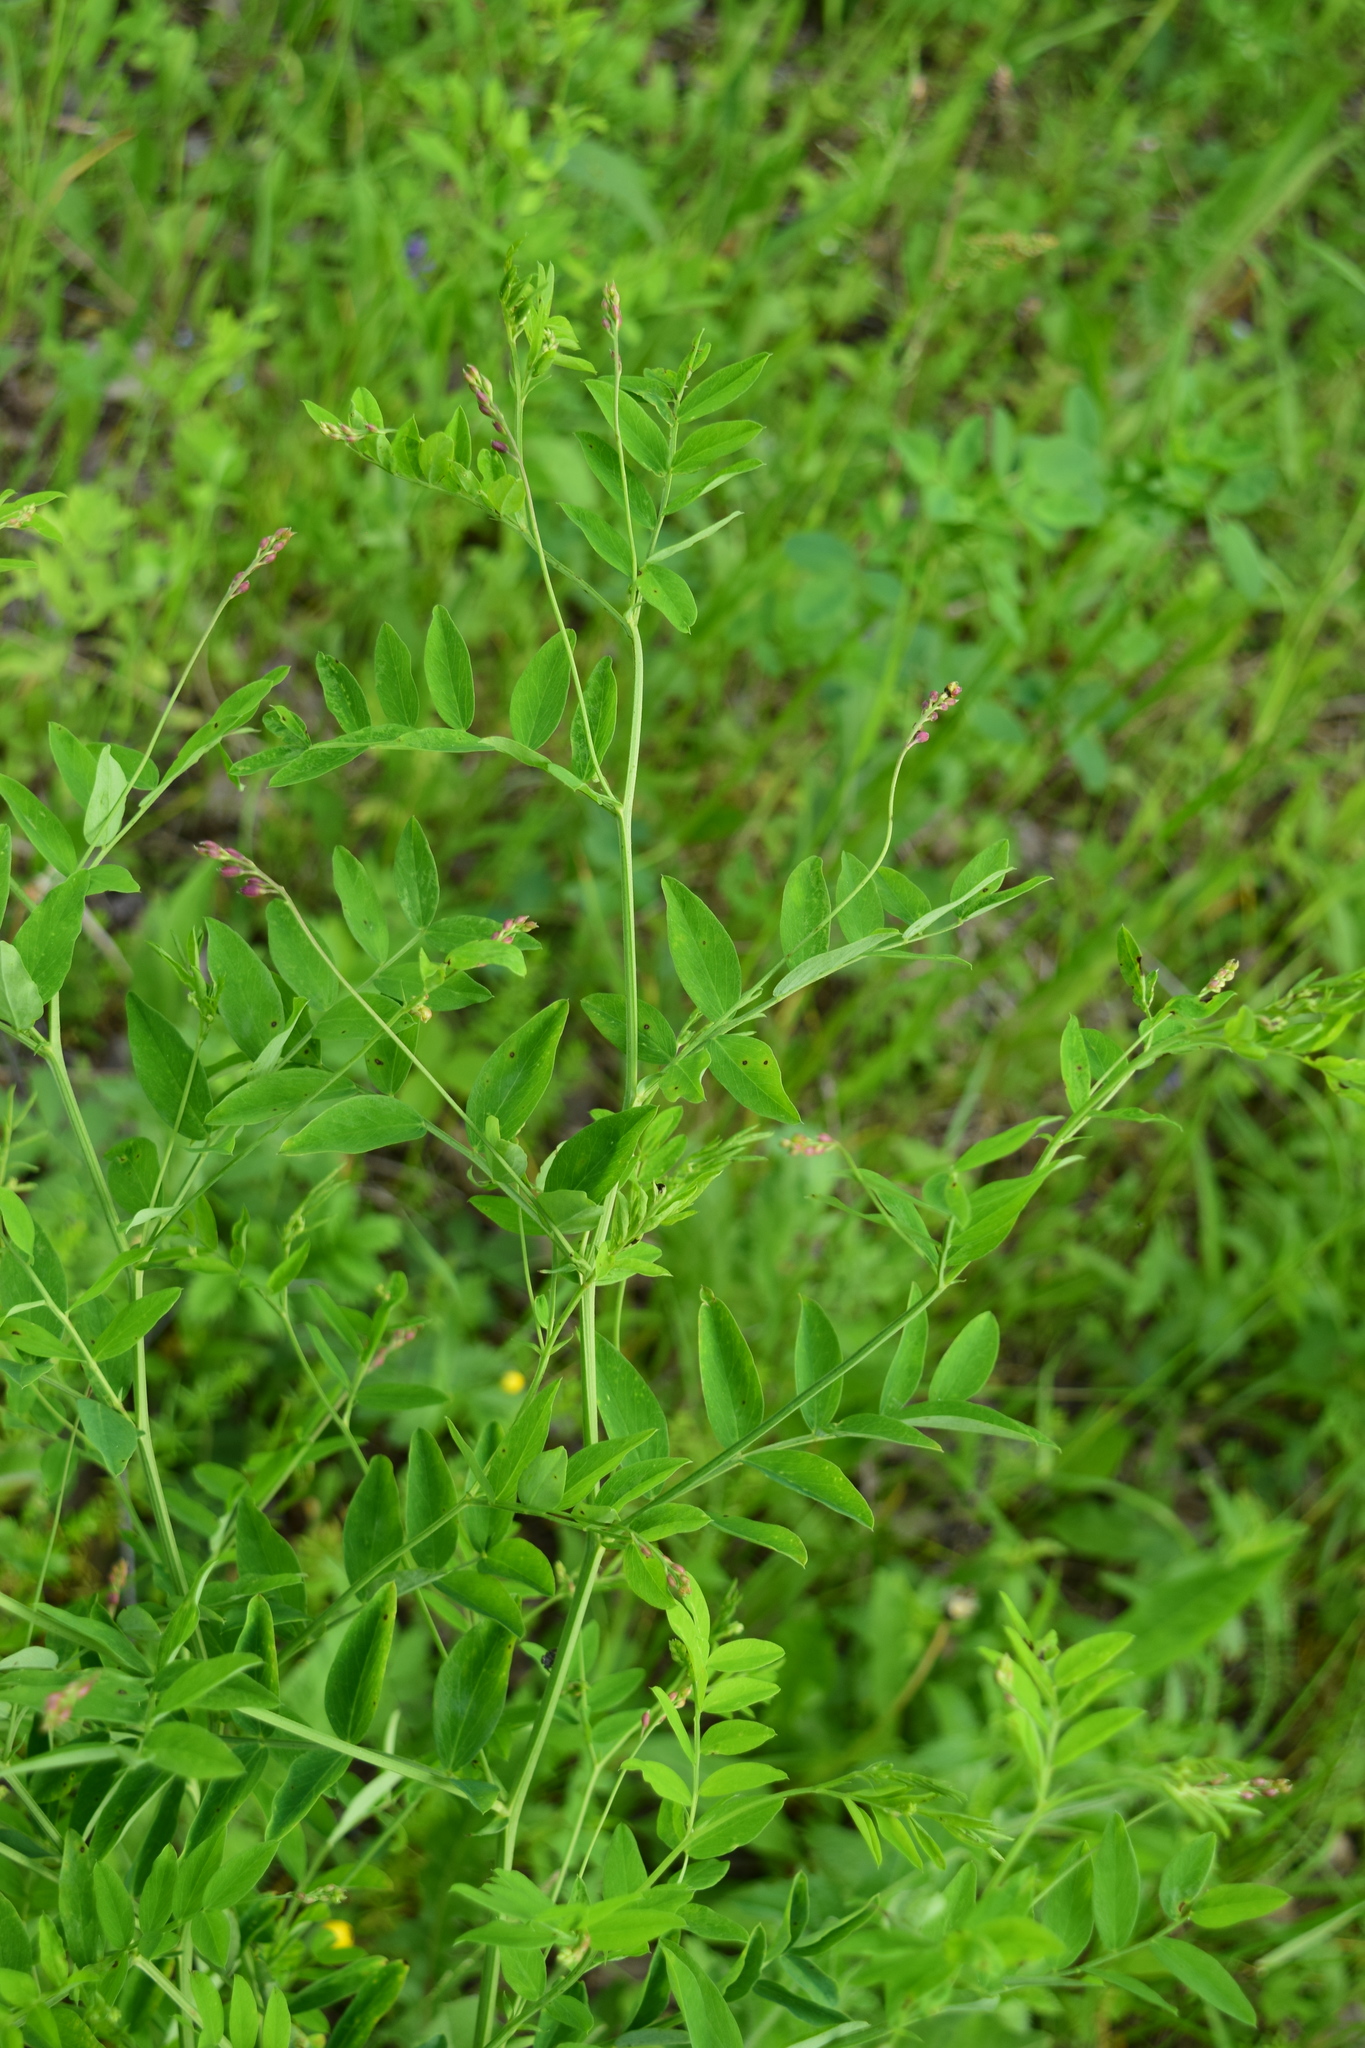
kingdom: Plantae
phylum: Tracheophyta
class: Magnoliopsida
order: Fabales
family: Fabaceae
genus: Lathyrus
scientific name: Lathyrus niger
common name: Black pea
